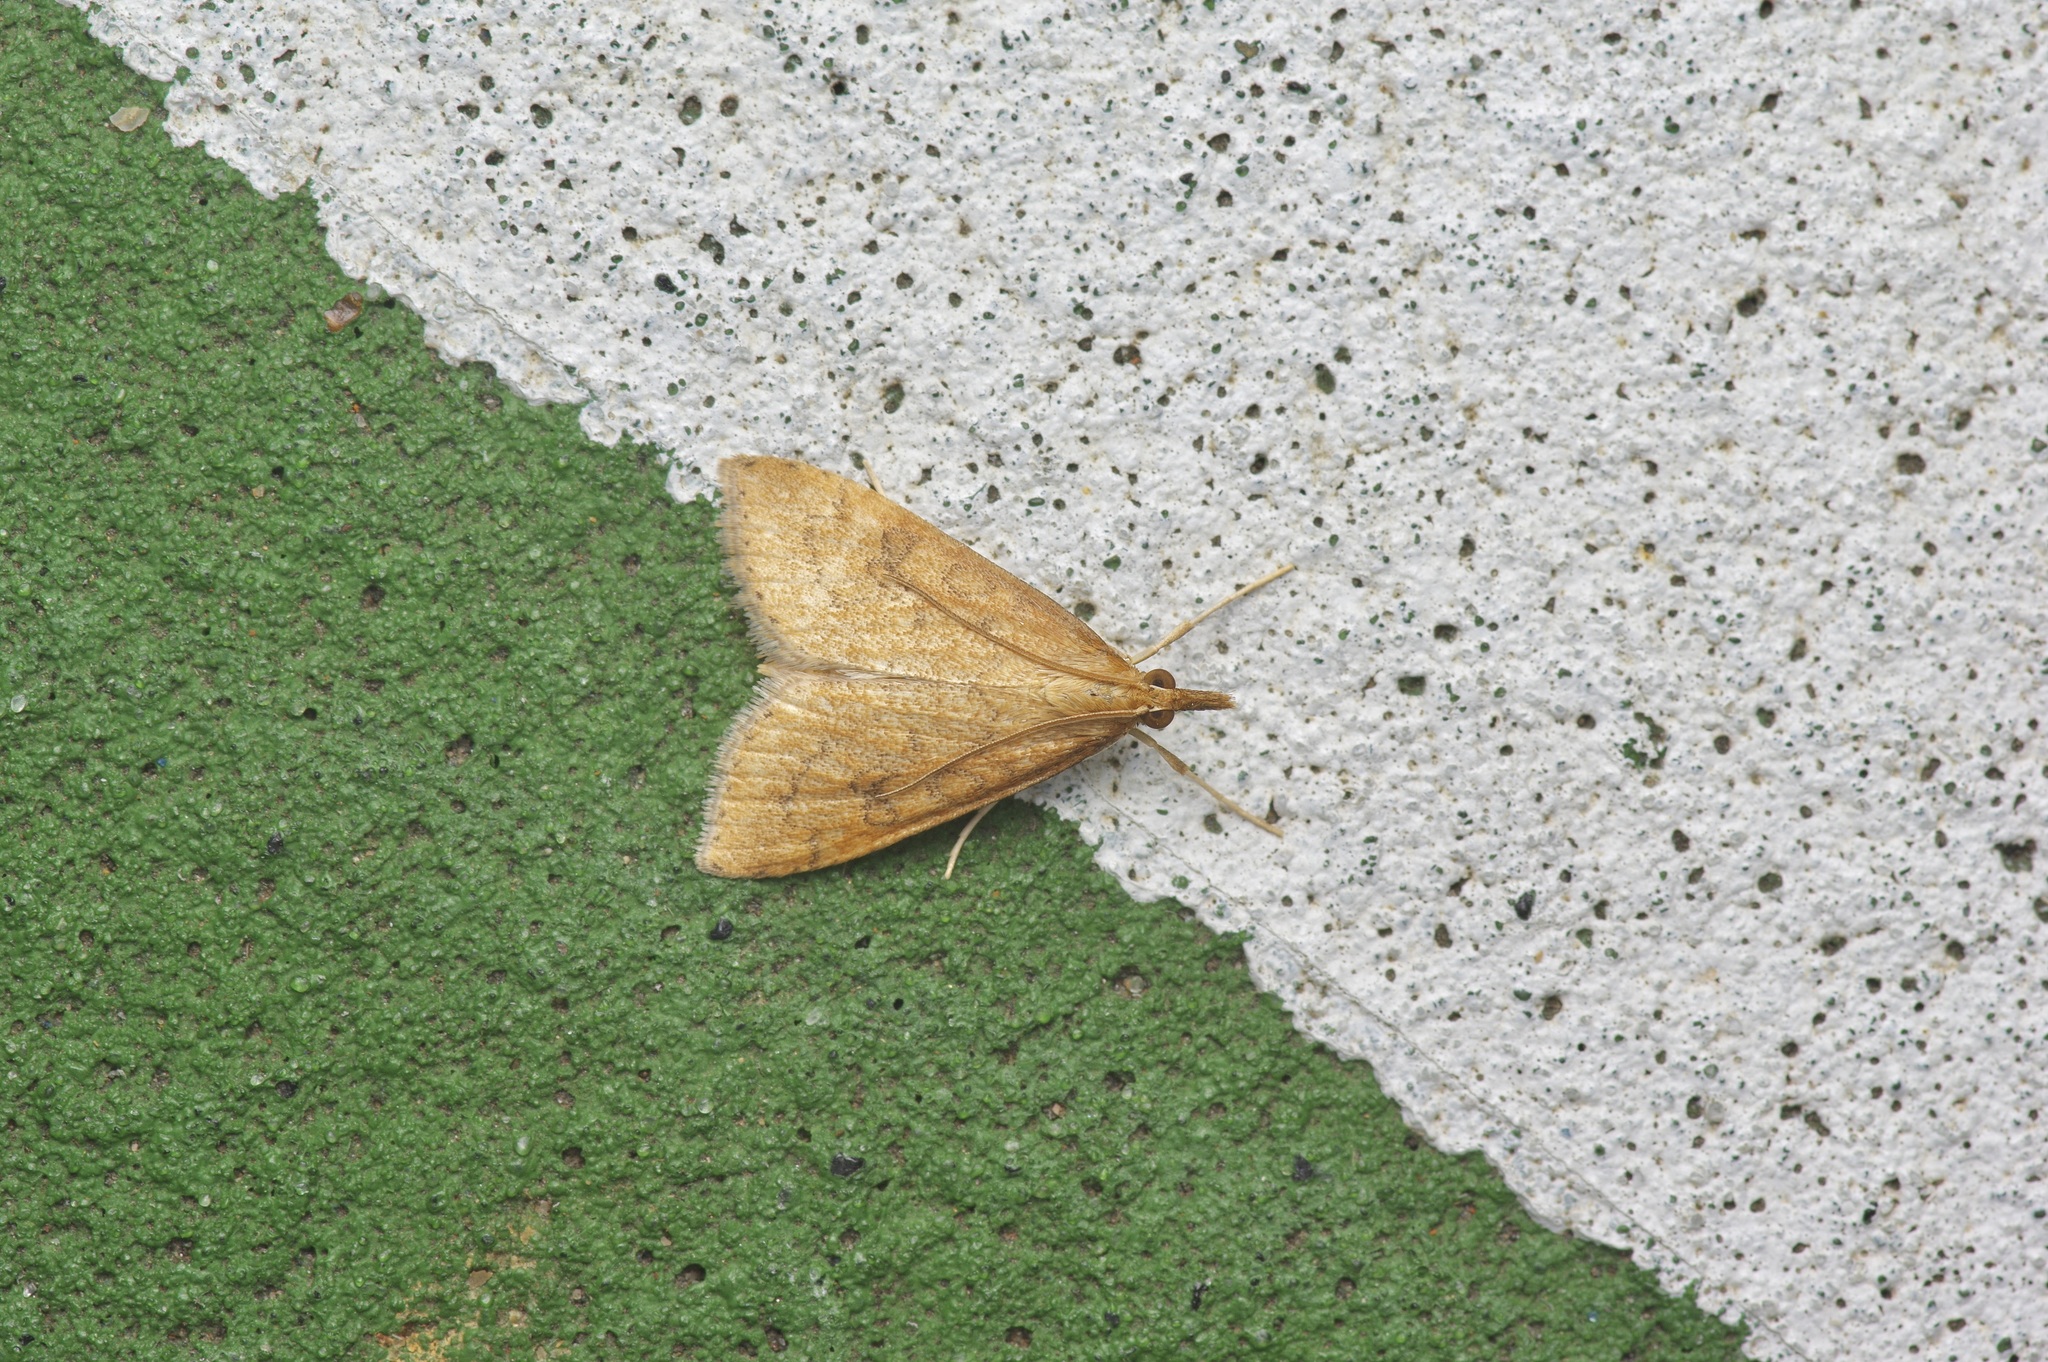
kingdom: Animalia
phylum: Arthropoda
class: Insecta
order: Lepidoptera
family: Crambidae
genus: Udea
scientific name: Udea rubigalis
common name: Celery leaftier moth
